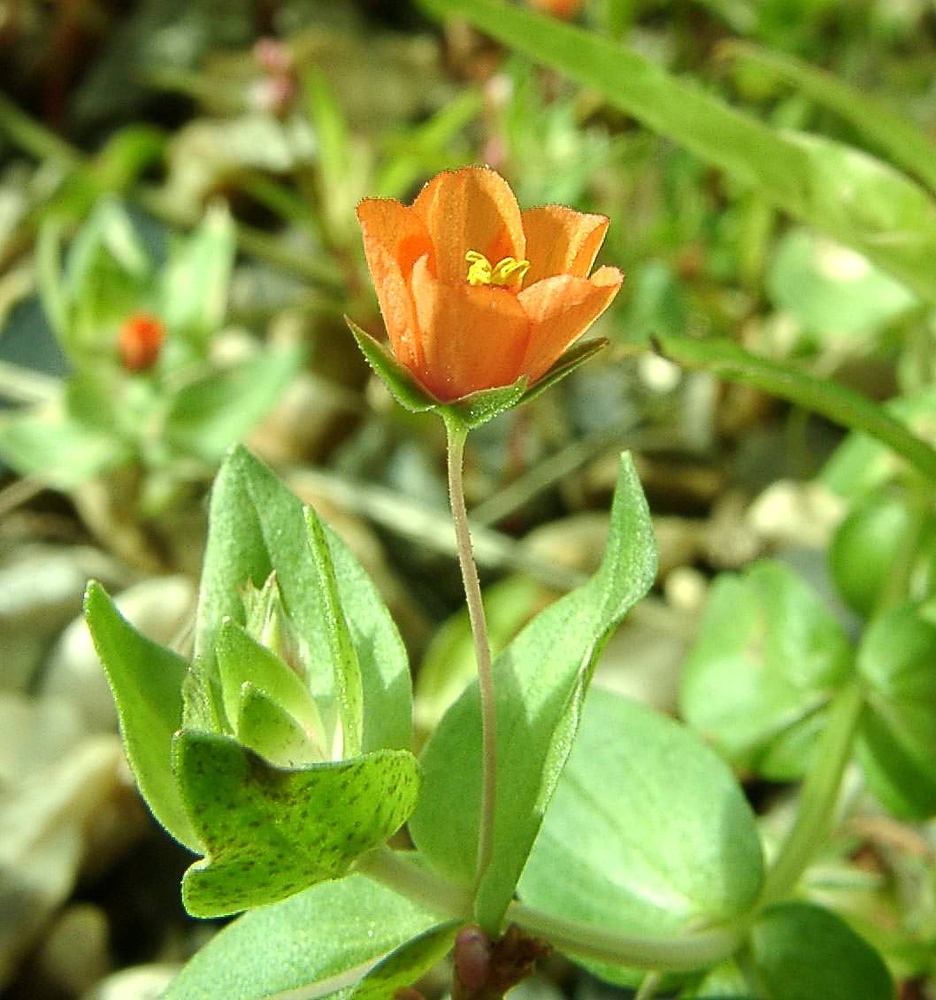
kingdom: Plantae
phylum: Tracheophyta
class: Magnoliopsida
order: Ericales
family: Primulaceae
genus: Lysimachia
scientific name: Lysimachia arvensis
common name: Scarlet pimpernel
